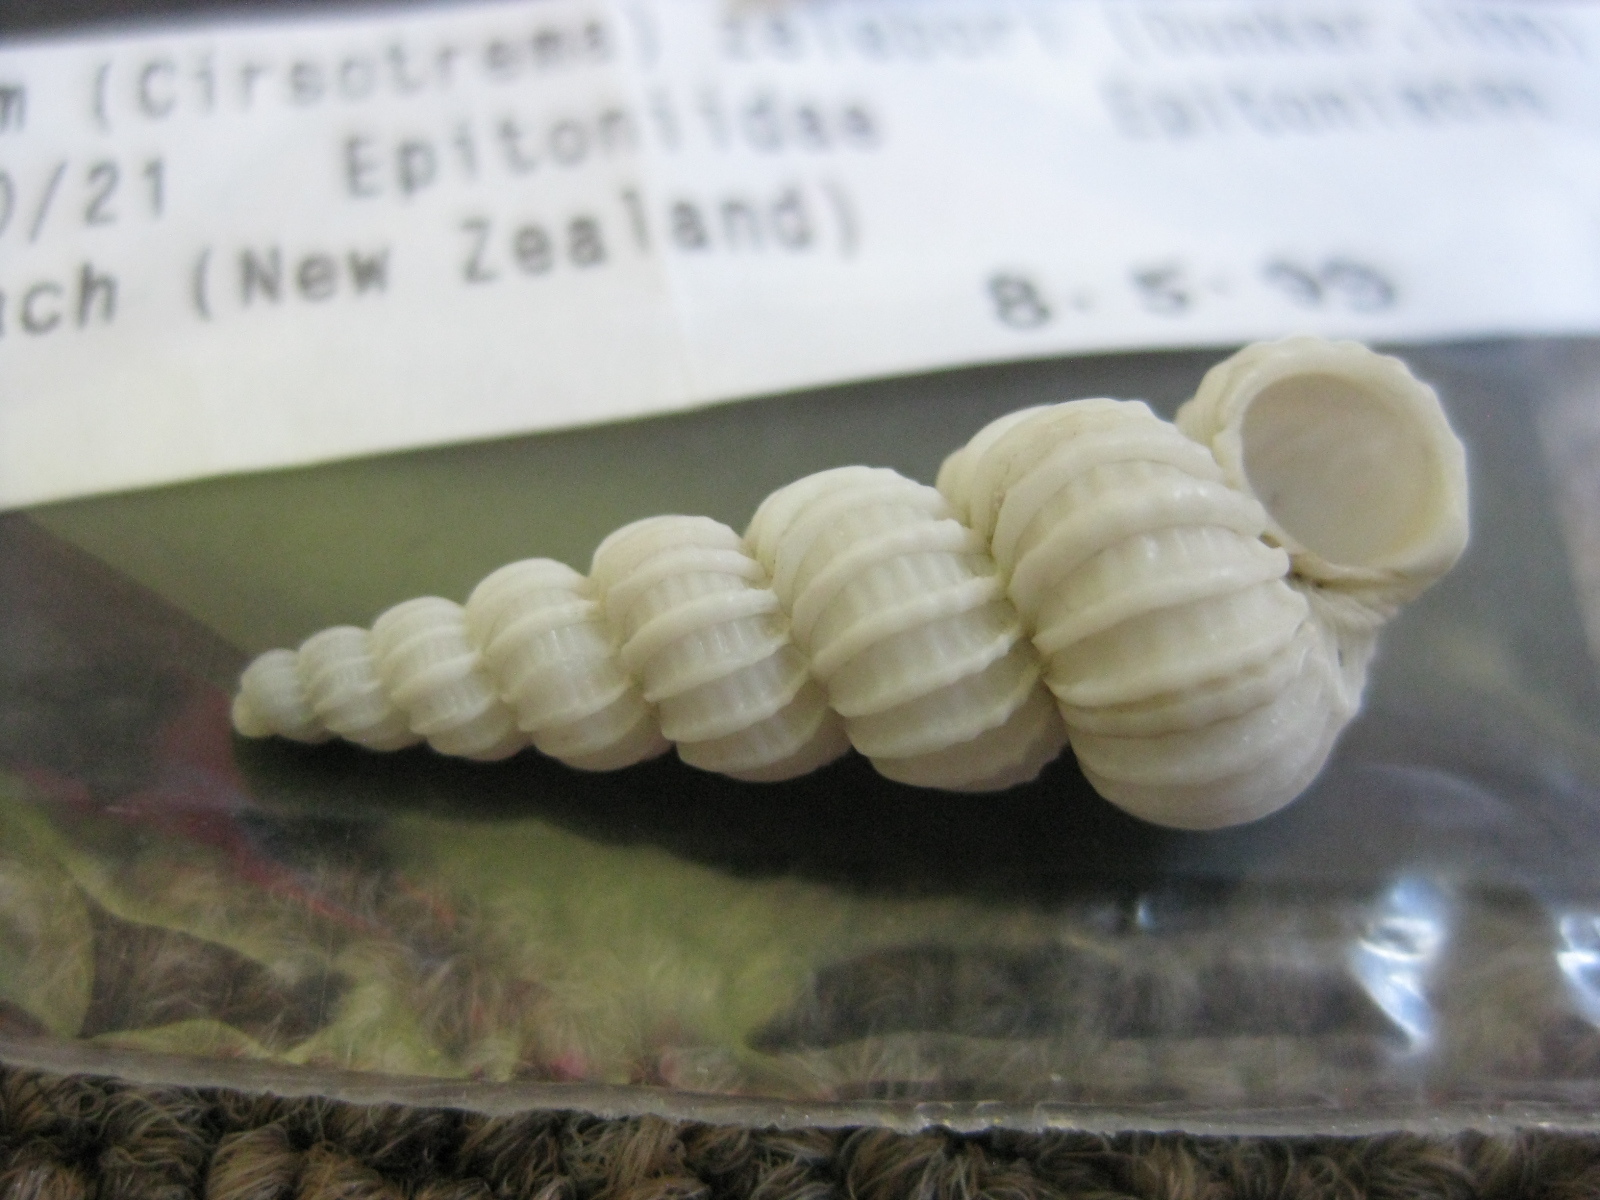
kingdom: Animalia
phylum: Mollusca
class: Gastropoda
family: Epitoniidae
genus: Cirsotrema
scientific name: Cirsotrema zelebori
